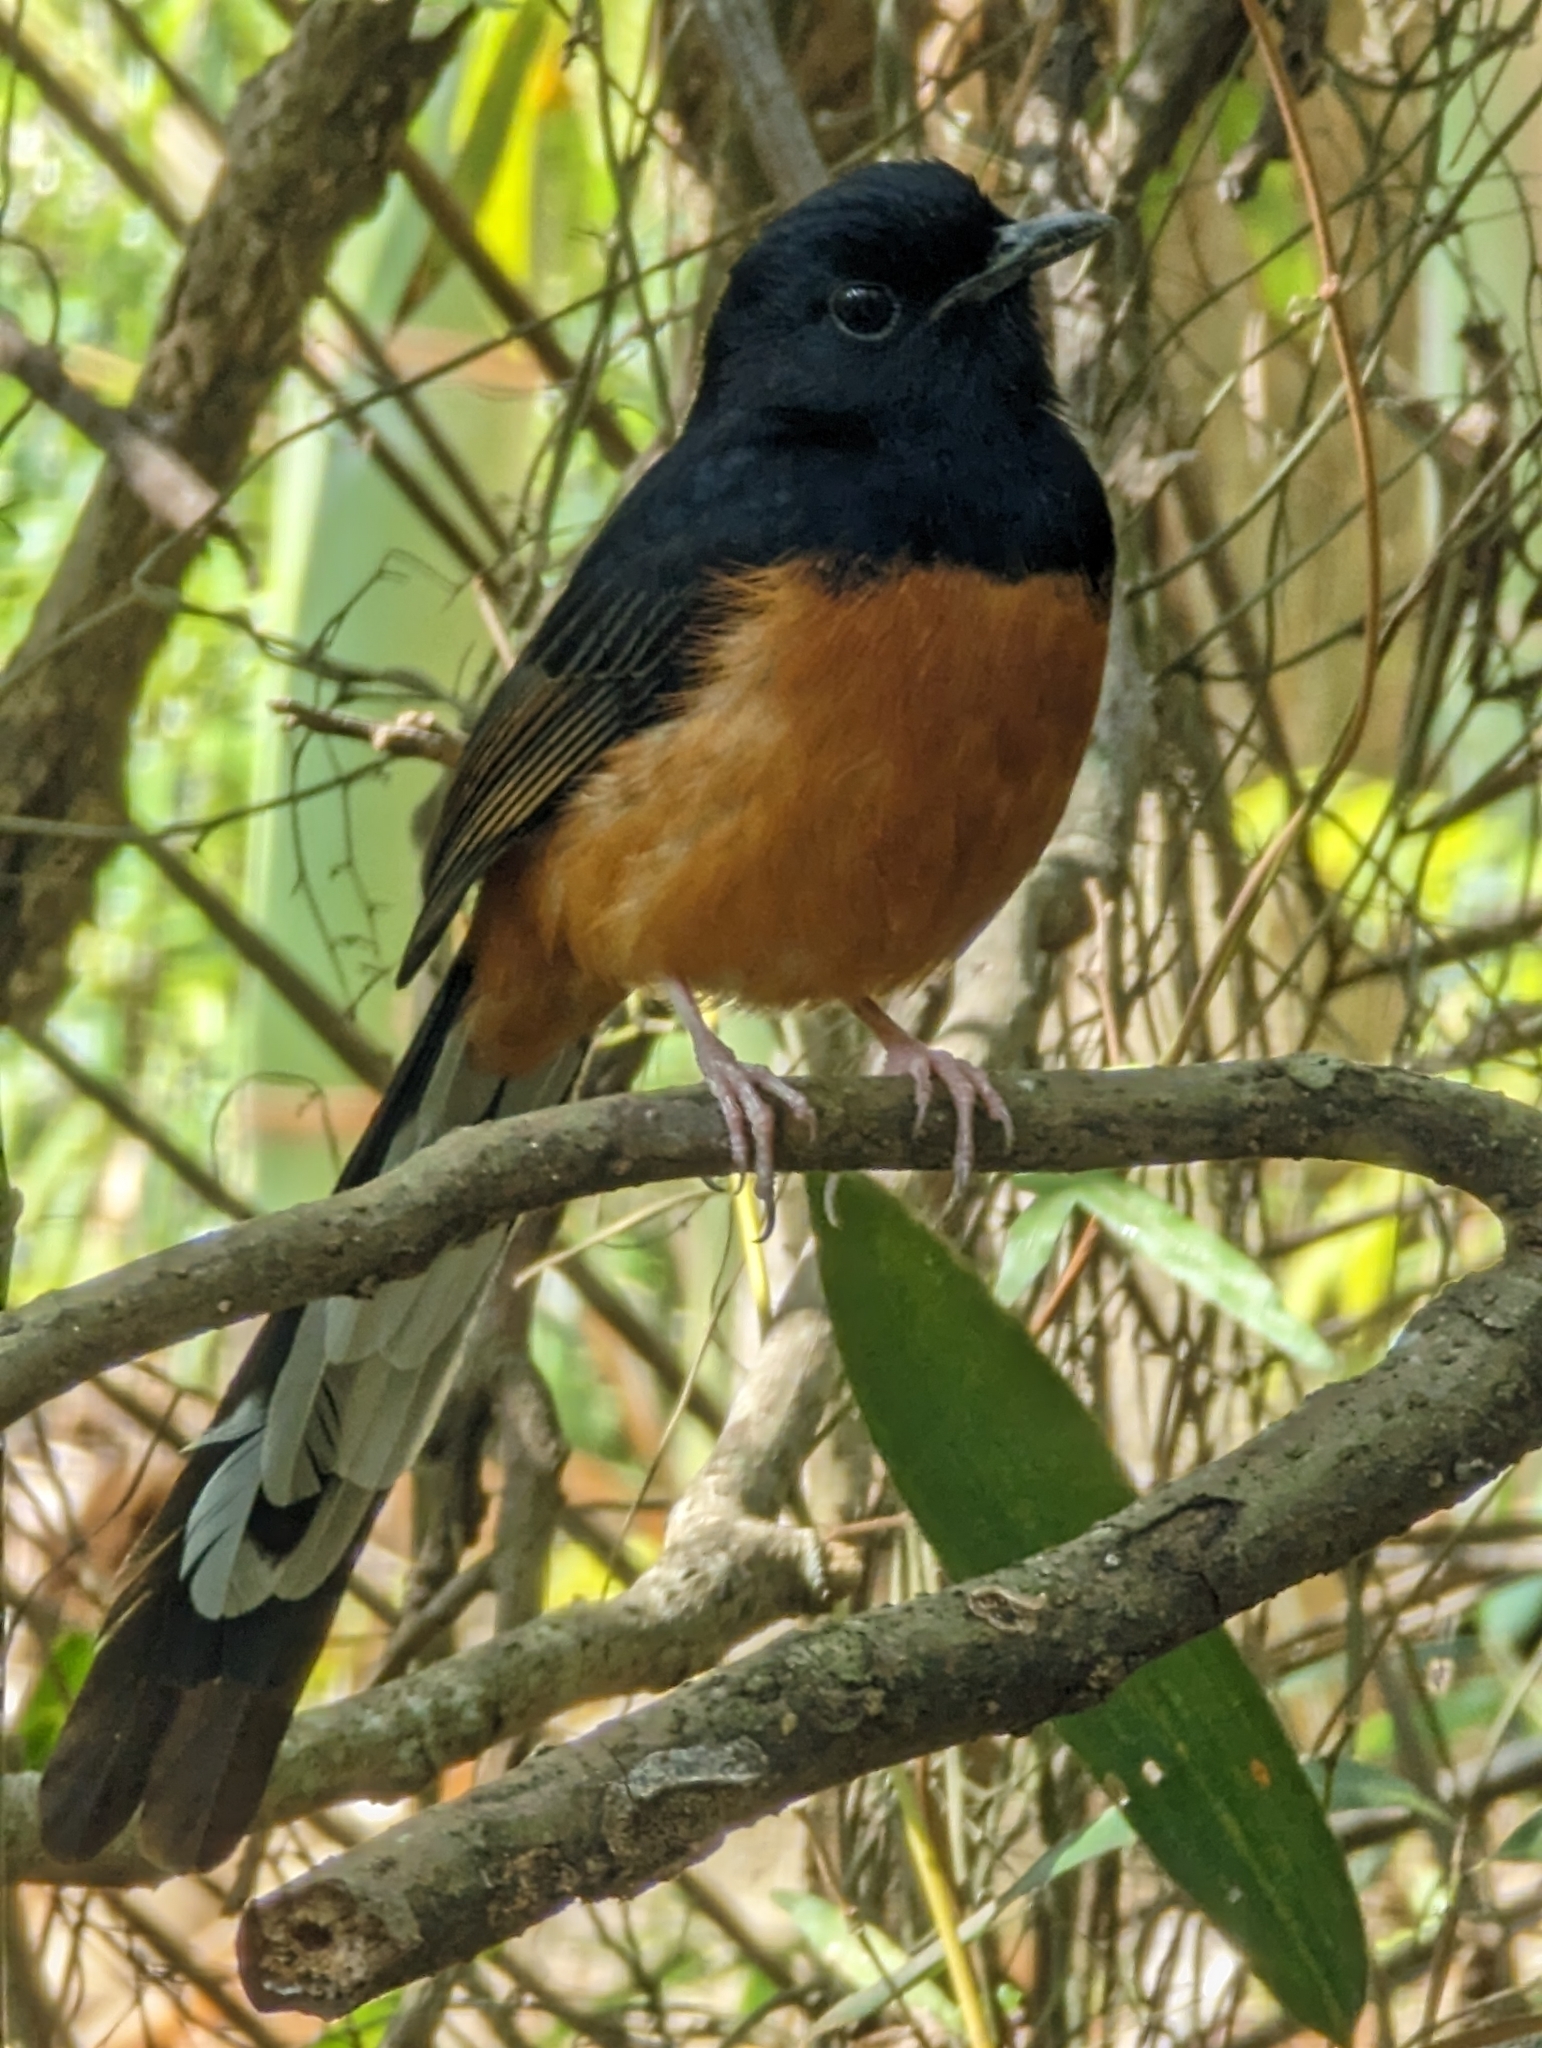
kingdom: Animalia
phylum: Chordata
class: Aves
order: Passeriformes
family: Muscicapidae
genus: Copsychus
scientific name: Copsychus malabaricus
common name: White-rumped shama
